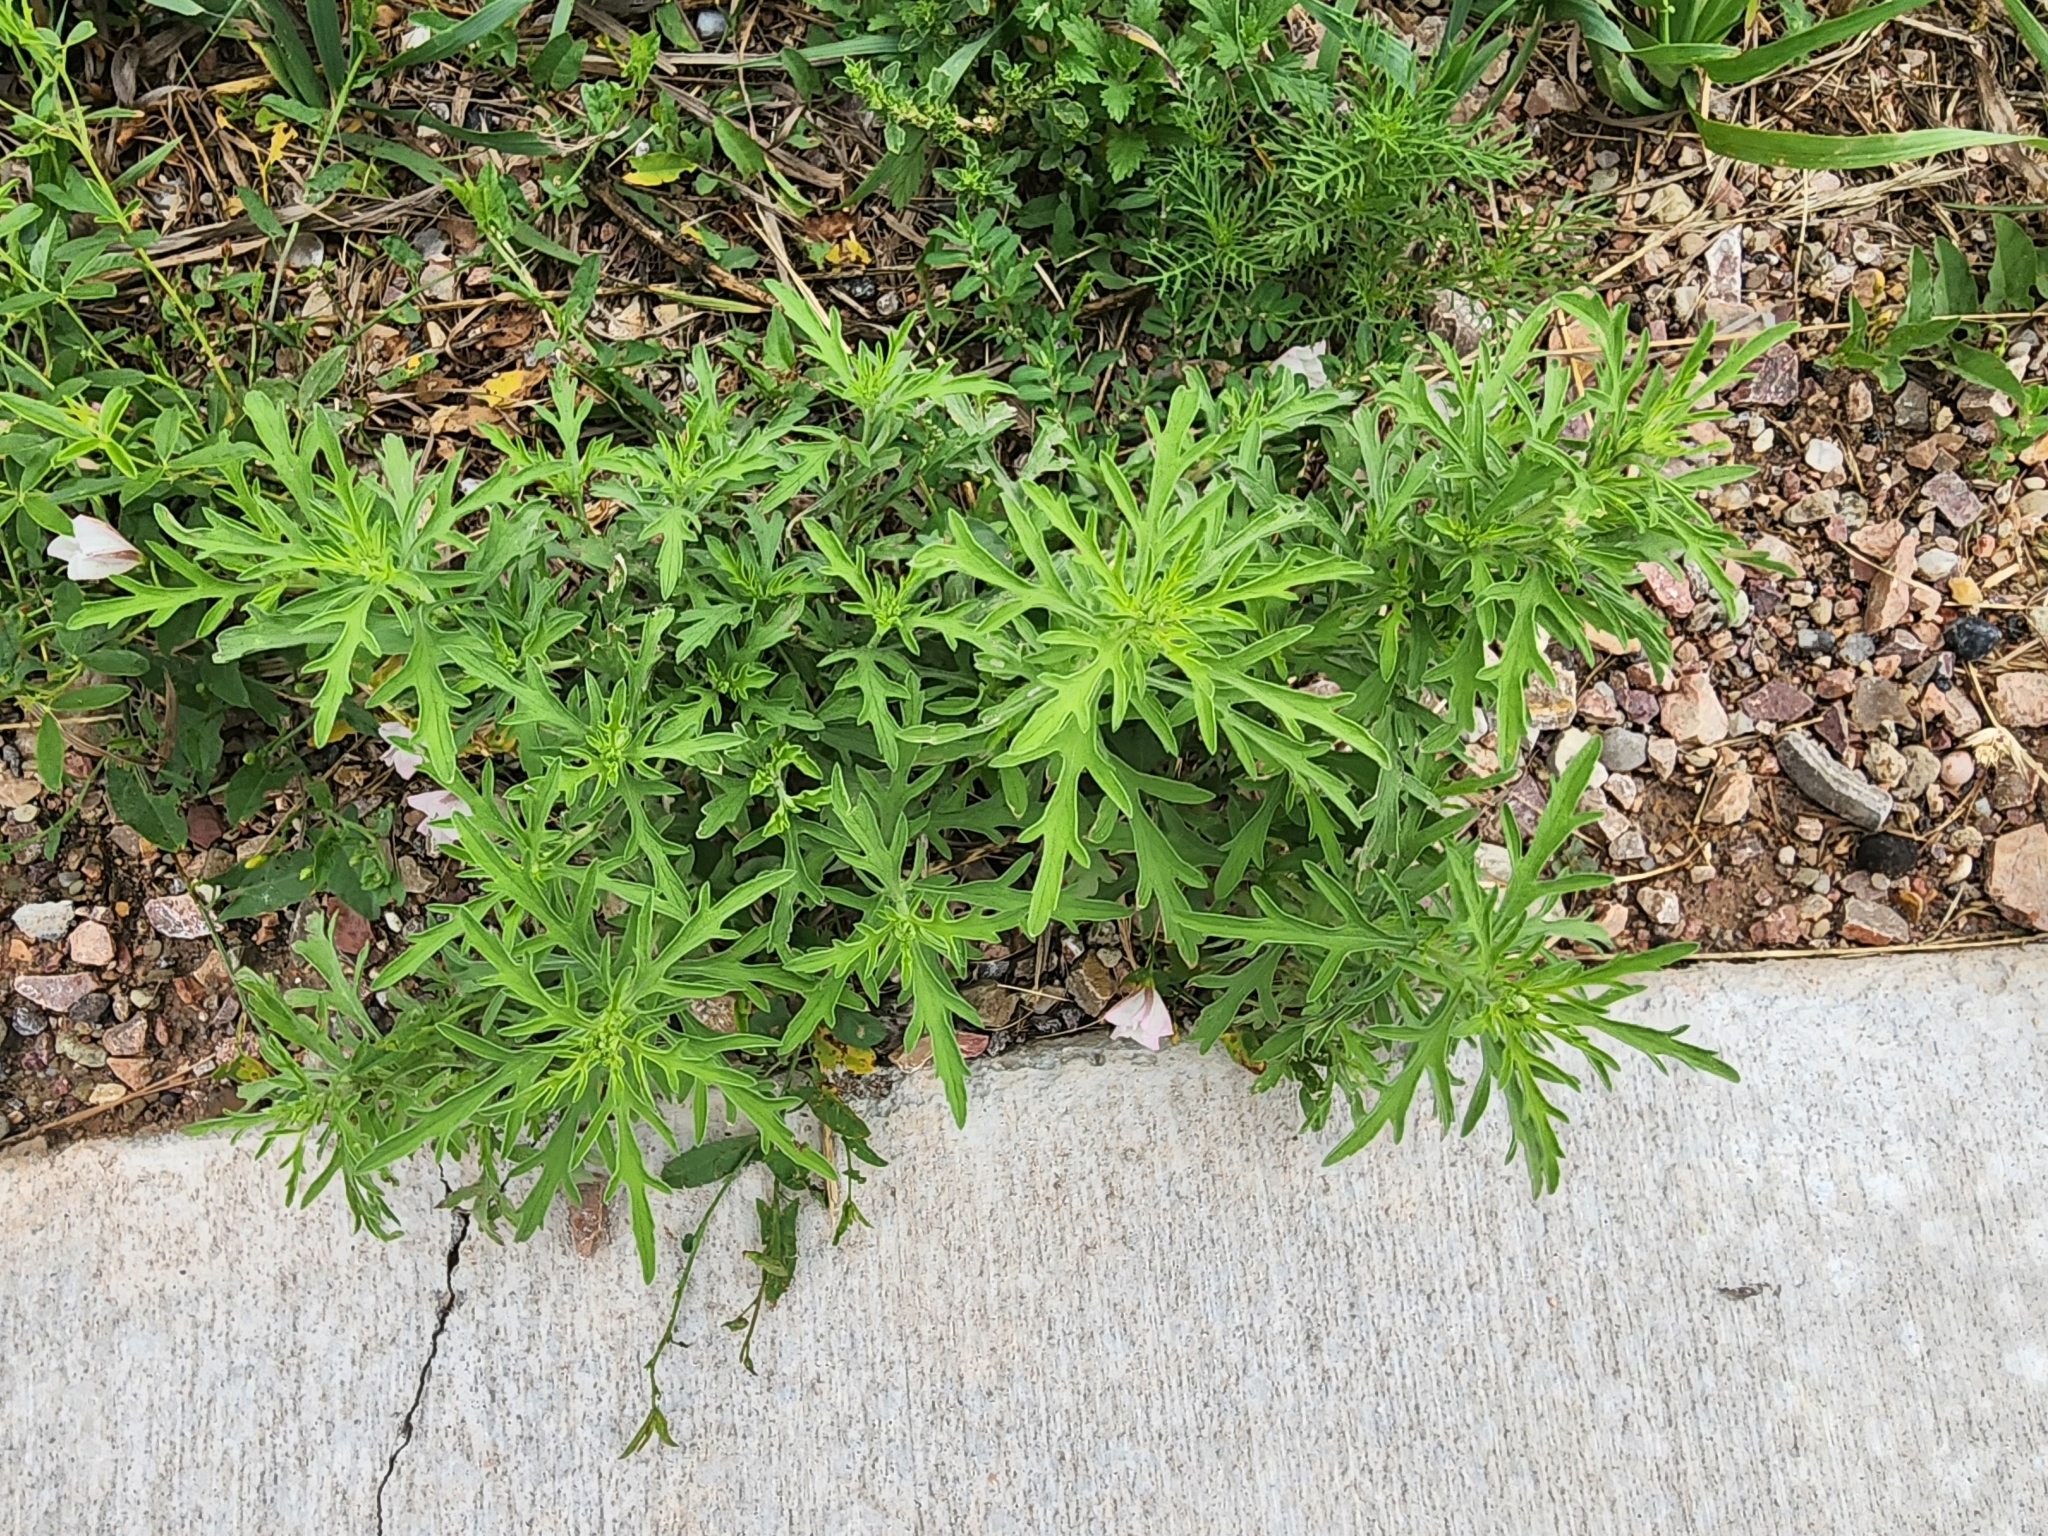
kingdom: Plantae
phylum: Tracheophyta
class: Magnoliopsida
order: Asterales
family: Asteraceae
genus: Ambrosia
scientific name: Ambrosia psilostachya
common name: Perennial ragweed
